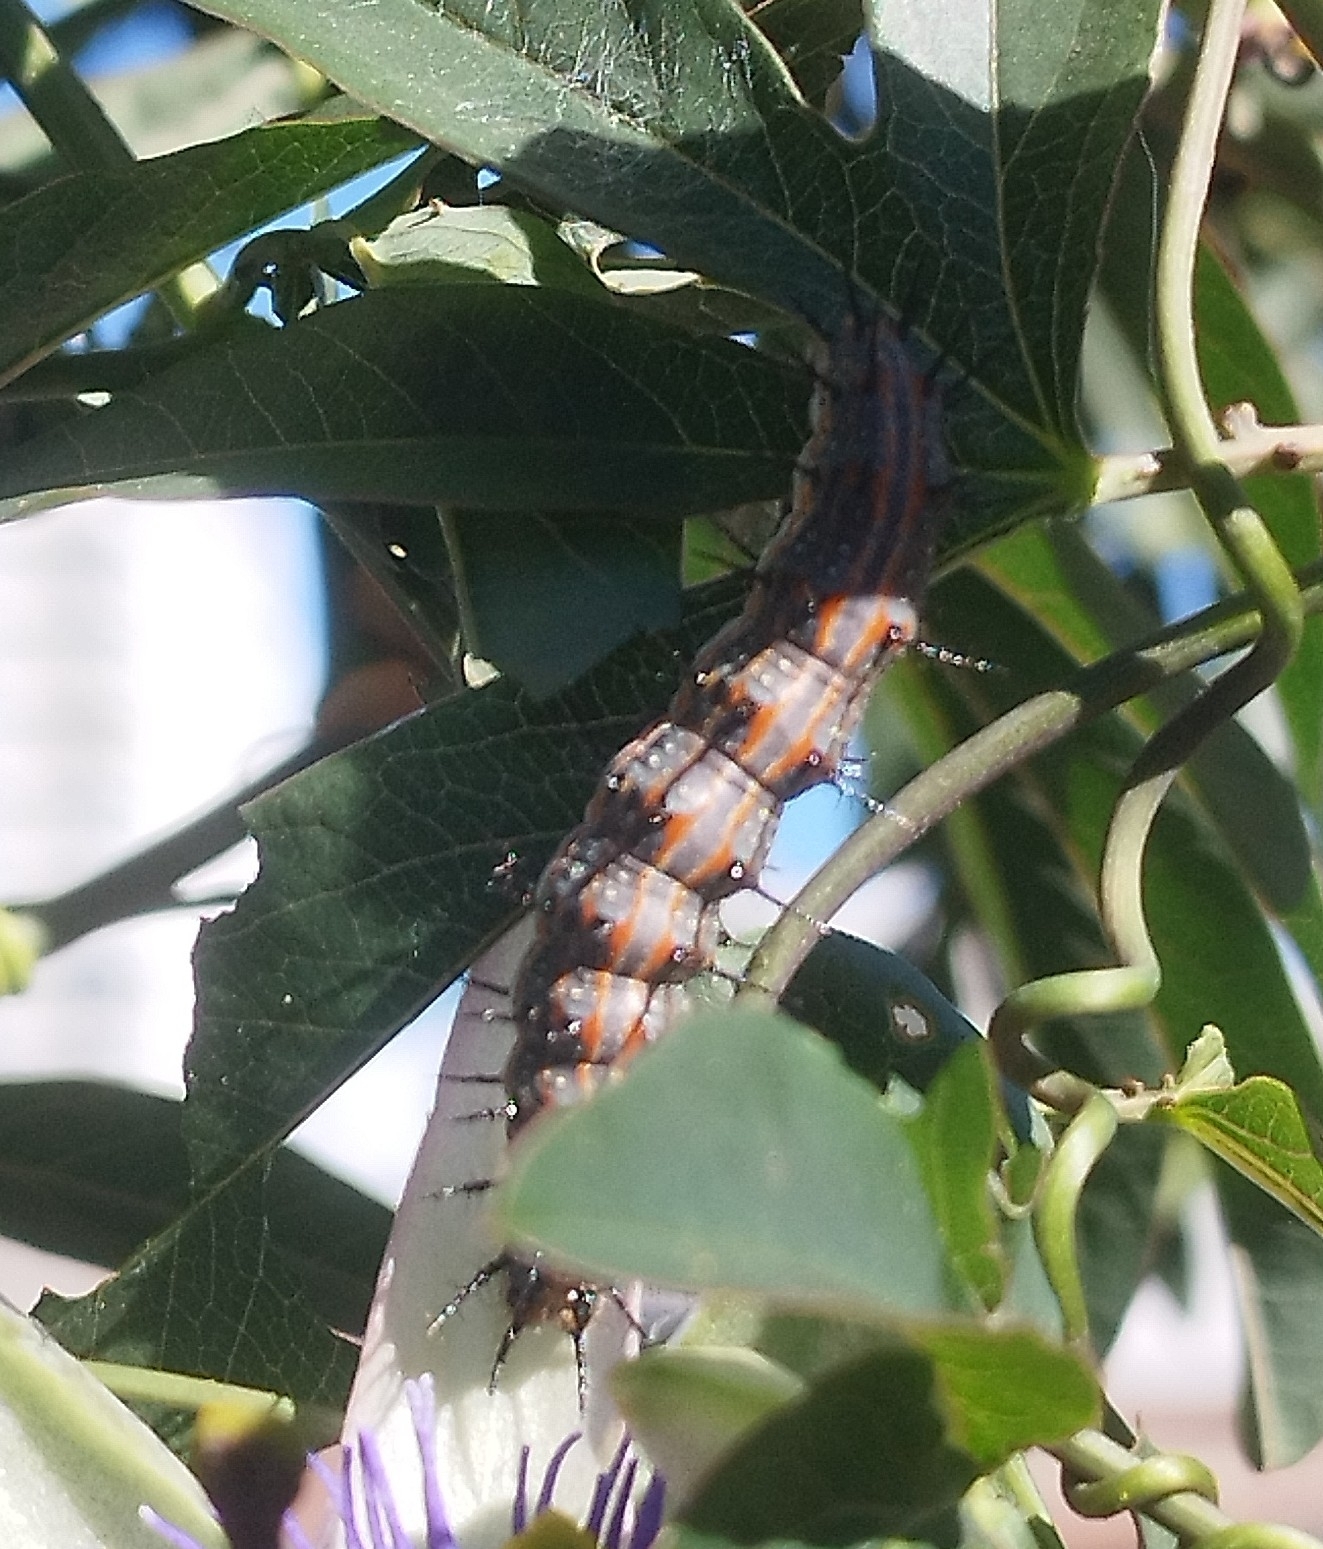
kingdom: Animalia
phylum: Arthropoda
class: Insecta
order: Lepidoptera
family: Nymphalidae
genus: Dione
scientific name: Dione vanillae
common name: Gulf fritillary
